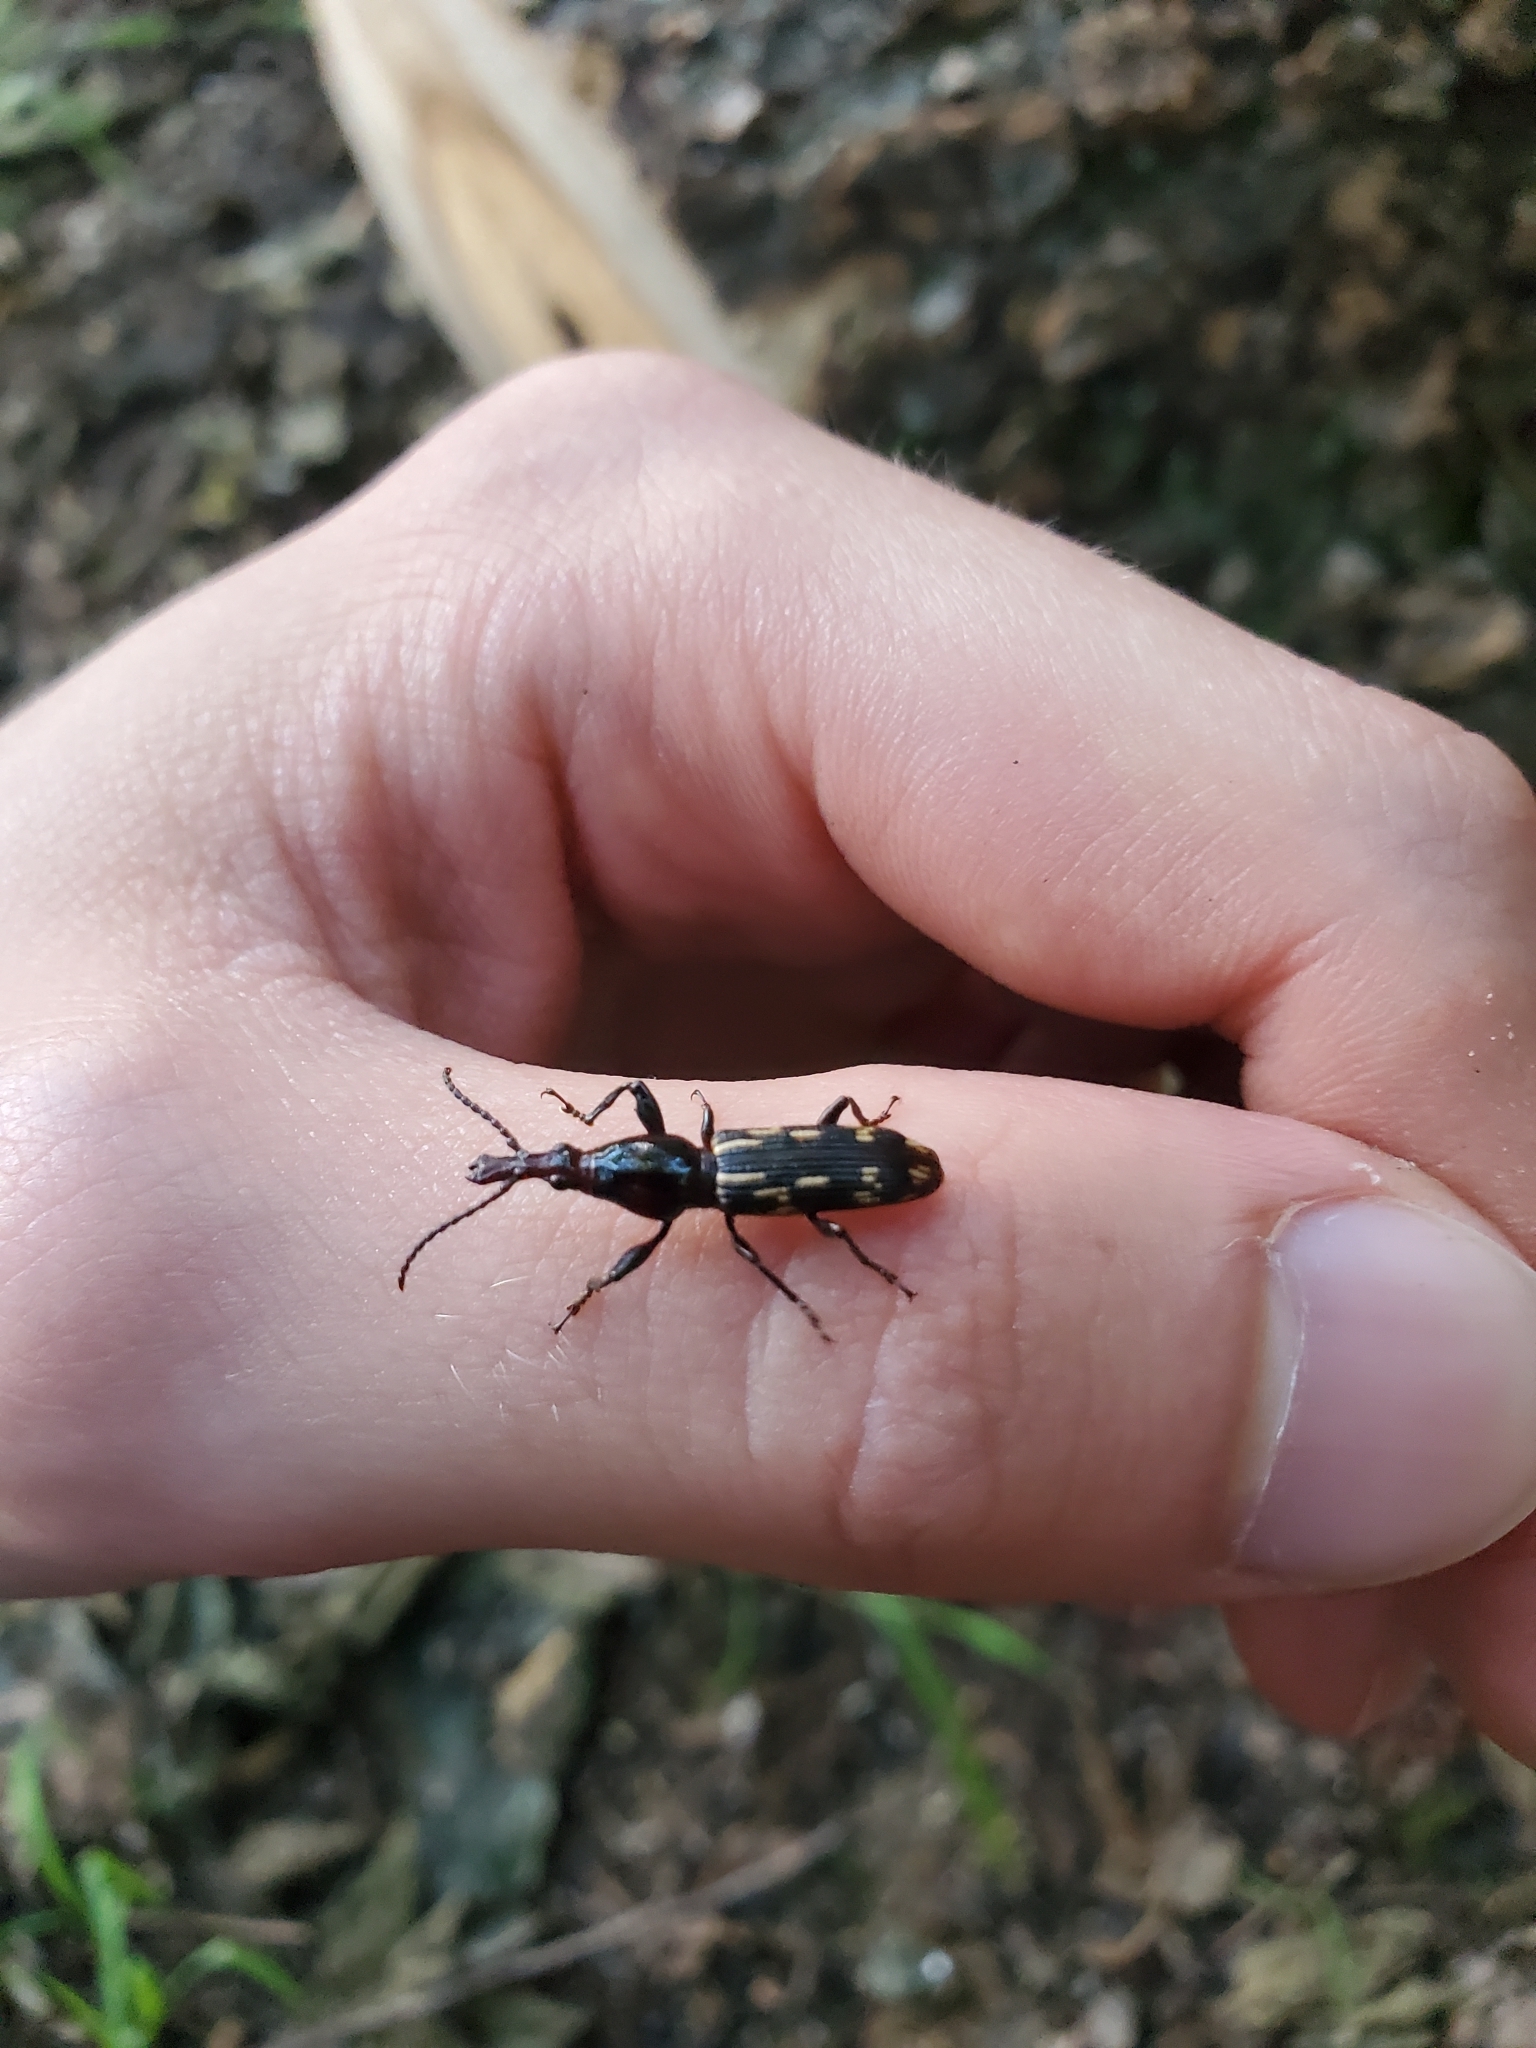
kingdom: Animalia
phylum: Arthropoda
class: Insecta
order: Coleoptera
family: Brentidae
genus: Arrenodes
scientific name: Arrenodes minutus
